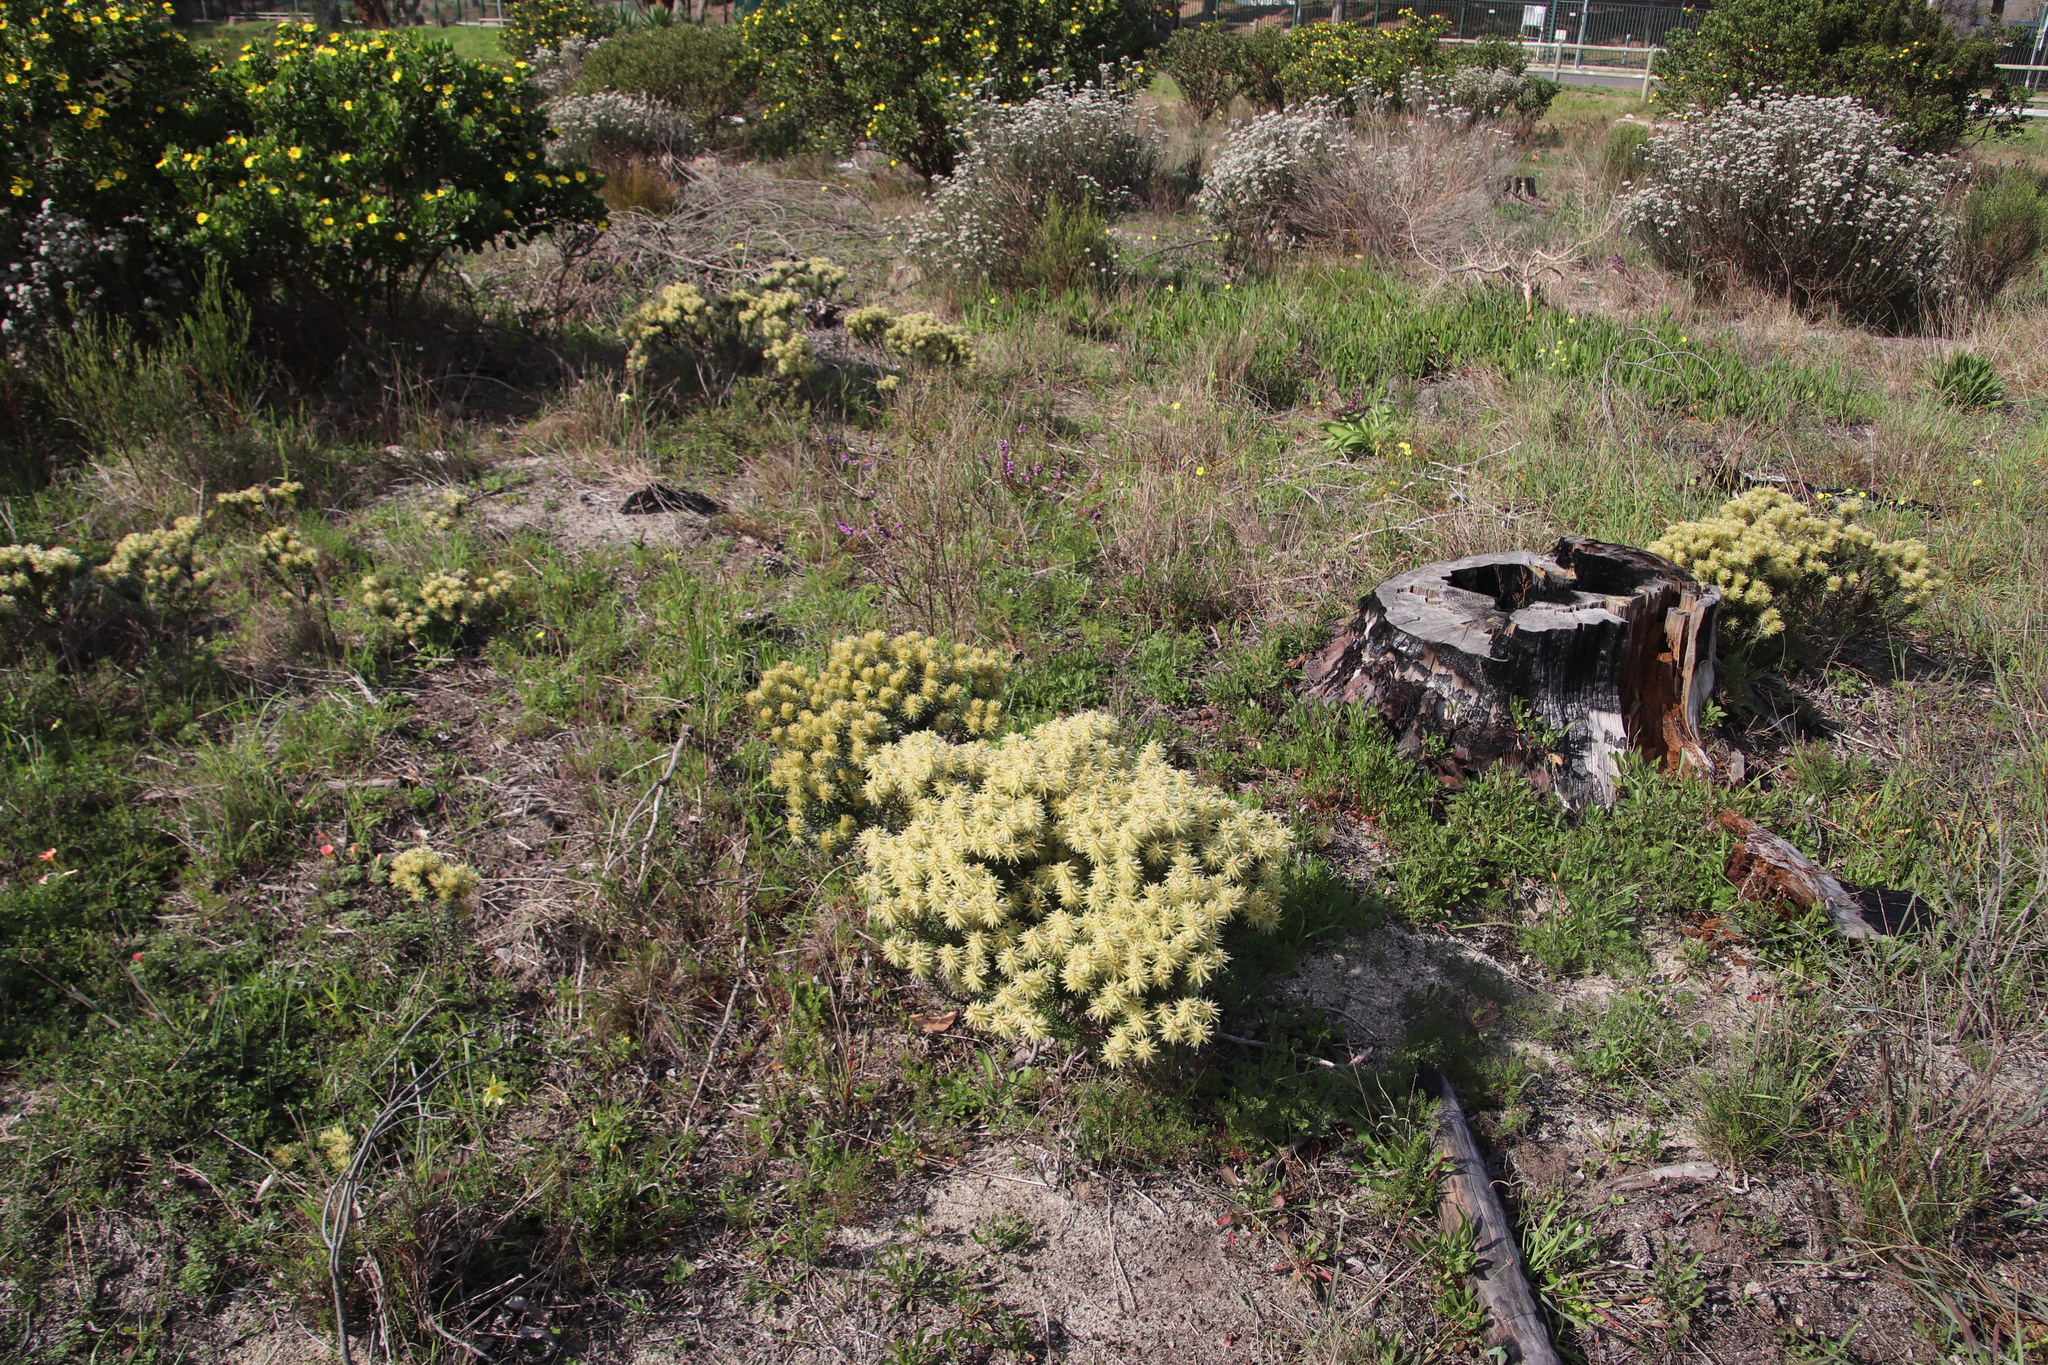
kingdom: Plantae
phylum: Tracheophyta
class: Magnoliopsida
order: Rosales
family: Rhamnaceae
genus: Phylica
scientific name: Phylica pubescens
